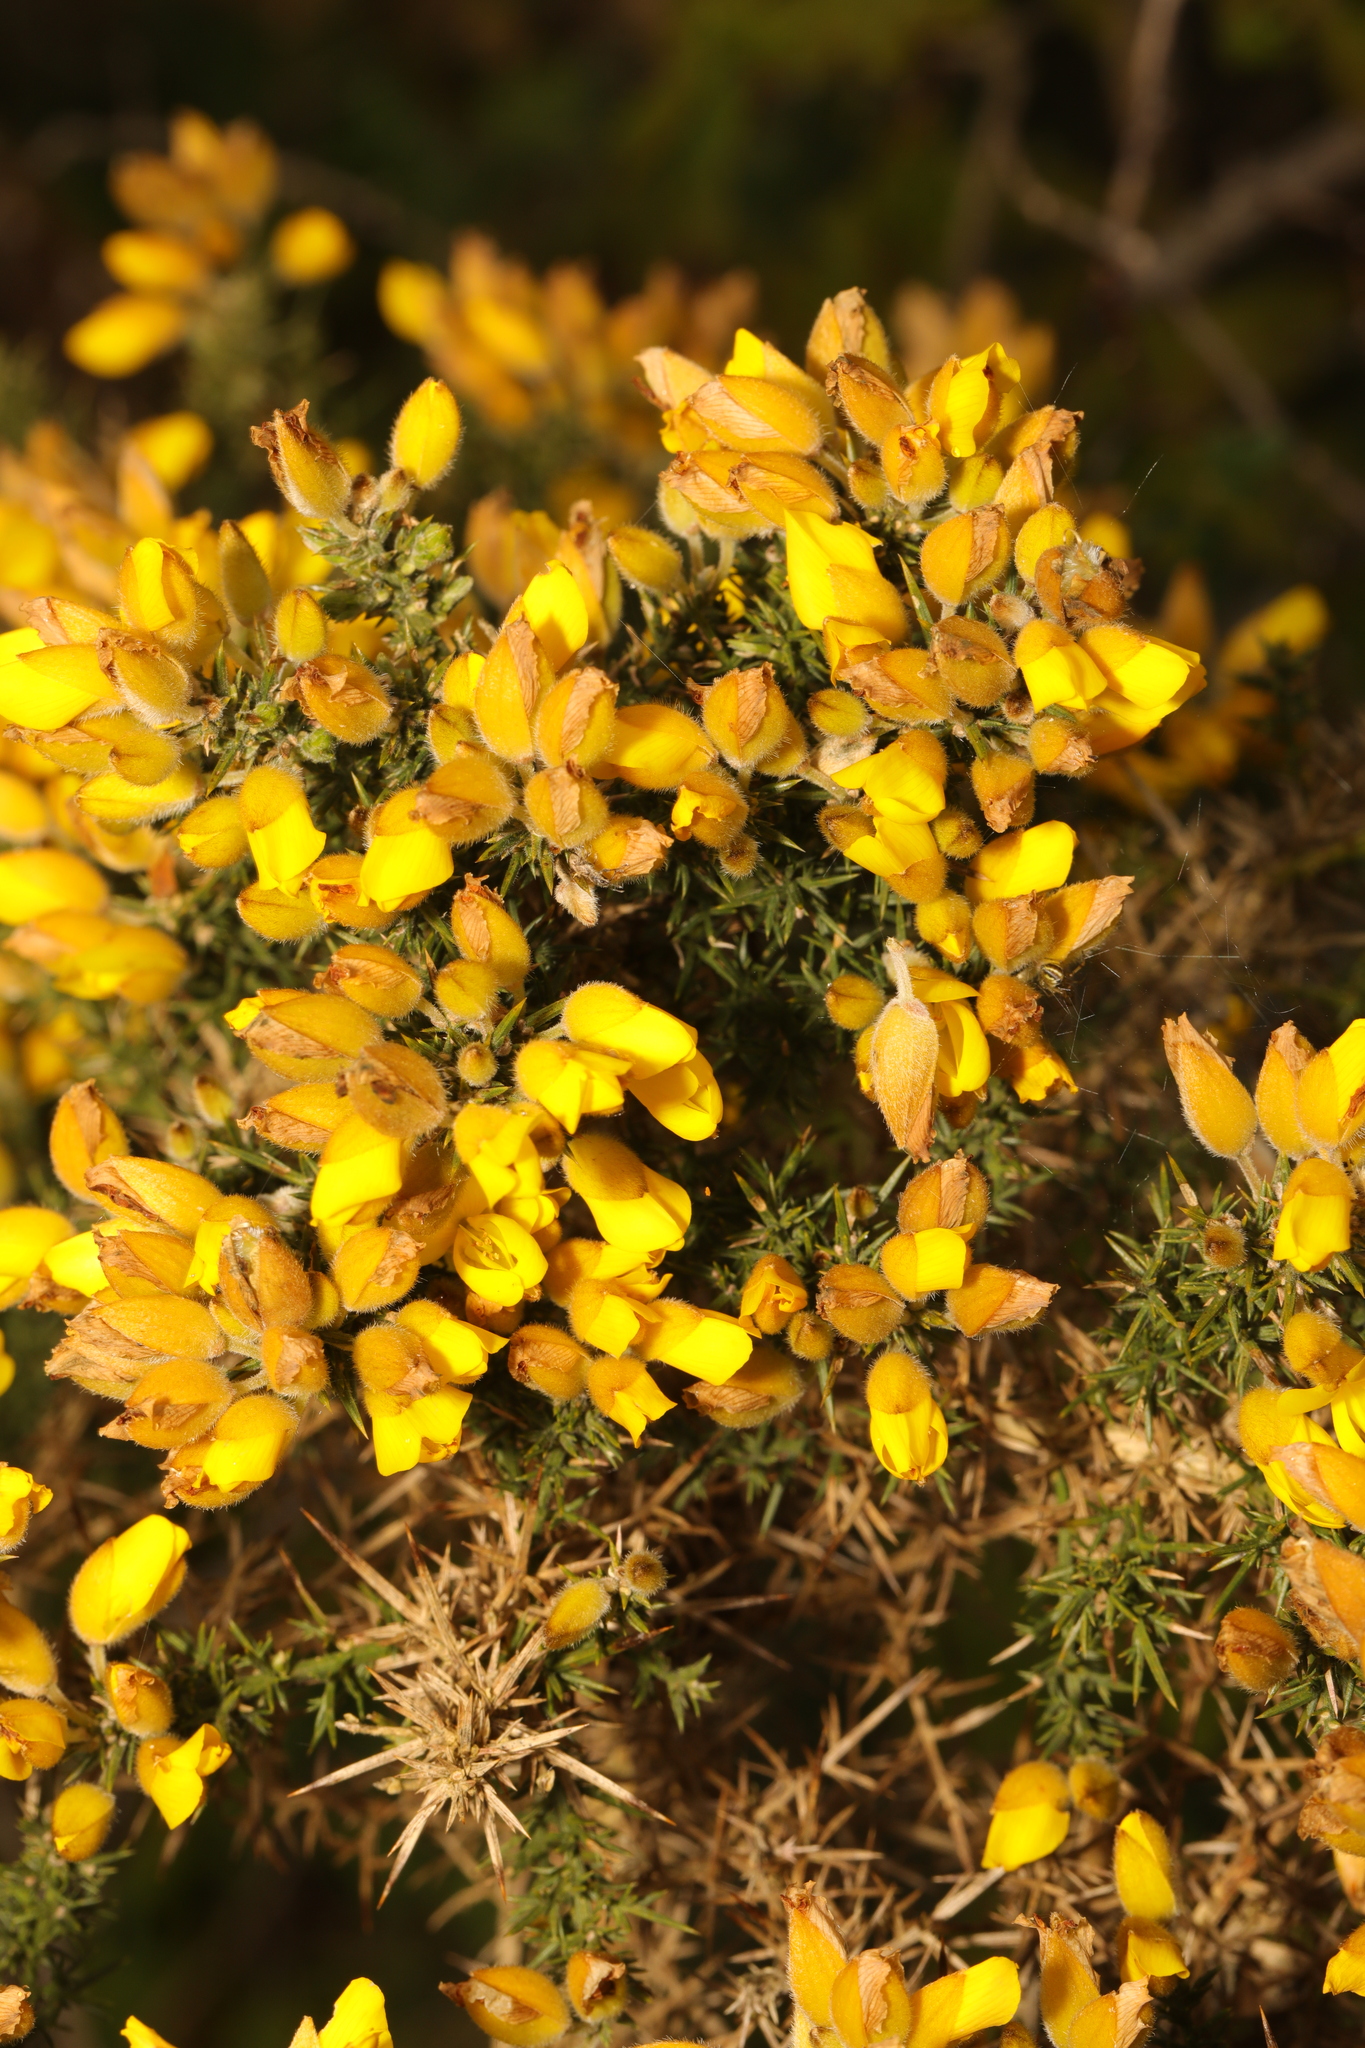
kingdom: Plantae
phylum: Tracheophyta
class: Magnoliopsida
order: Fabales
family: Fabaceae
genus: Ulex
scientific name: Ulex europaeus
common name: Common gorse
